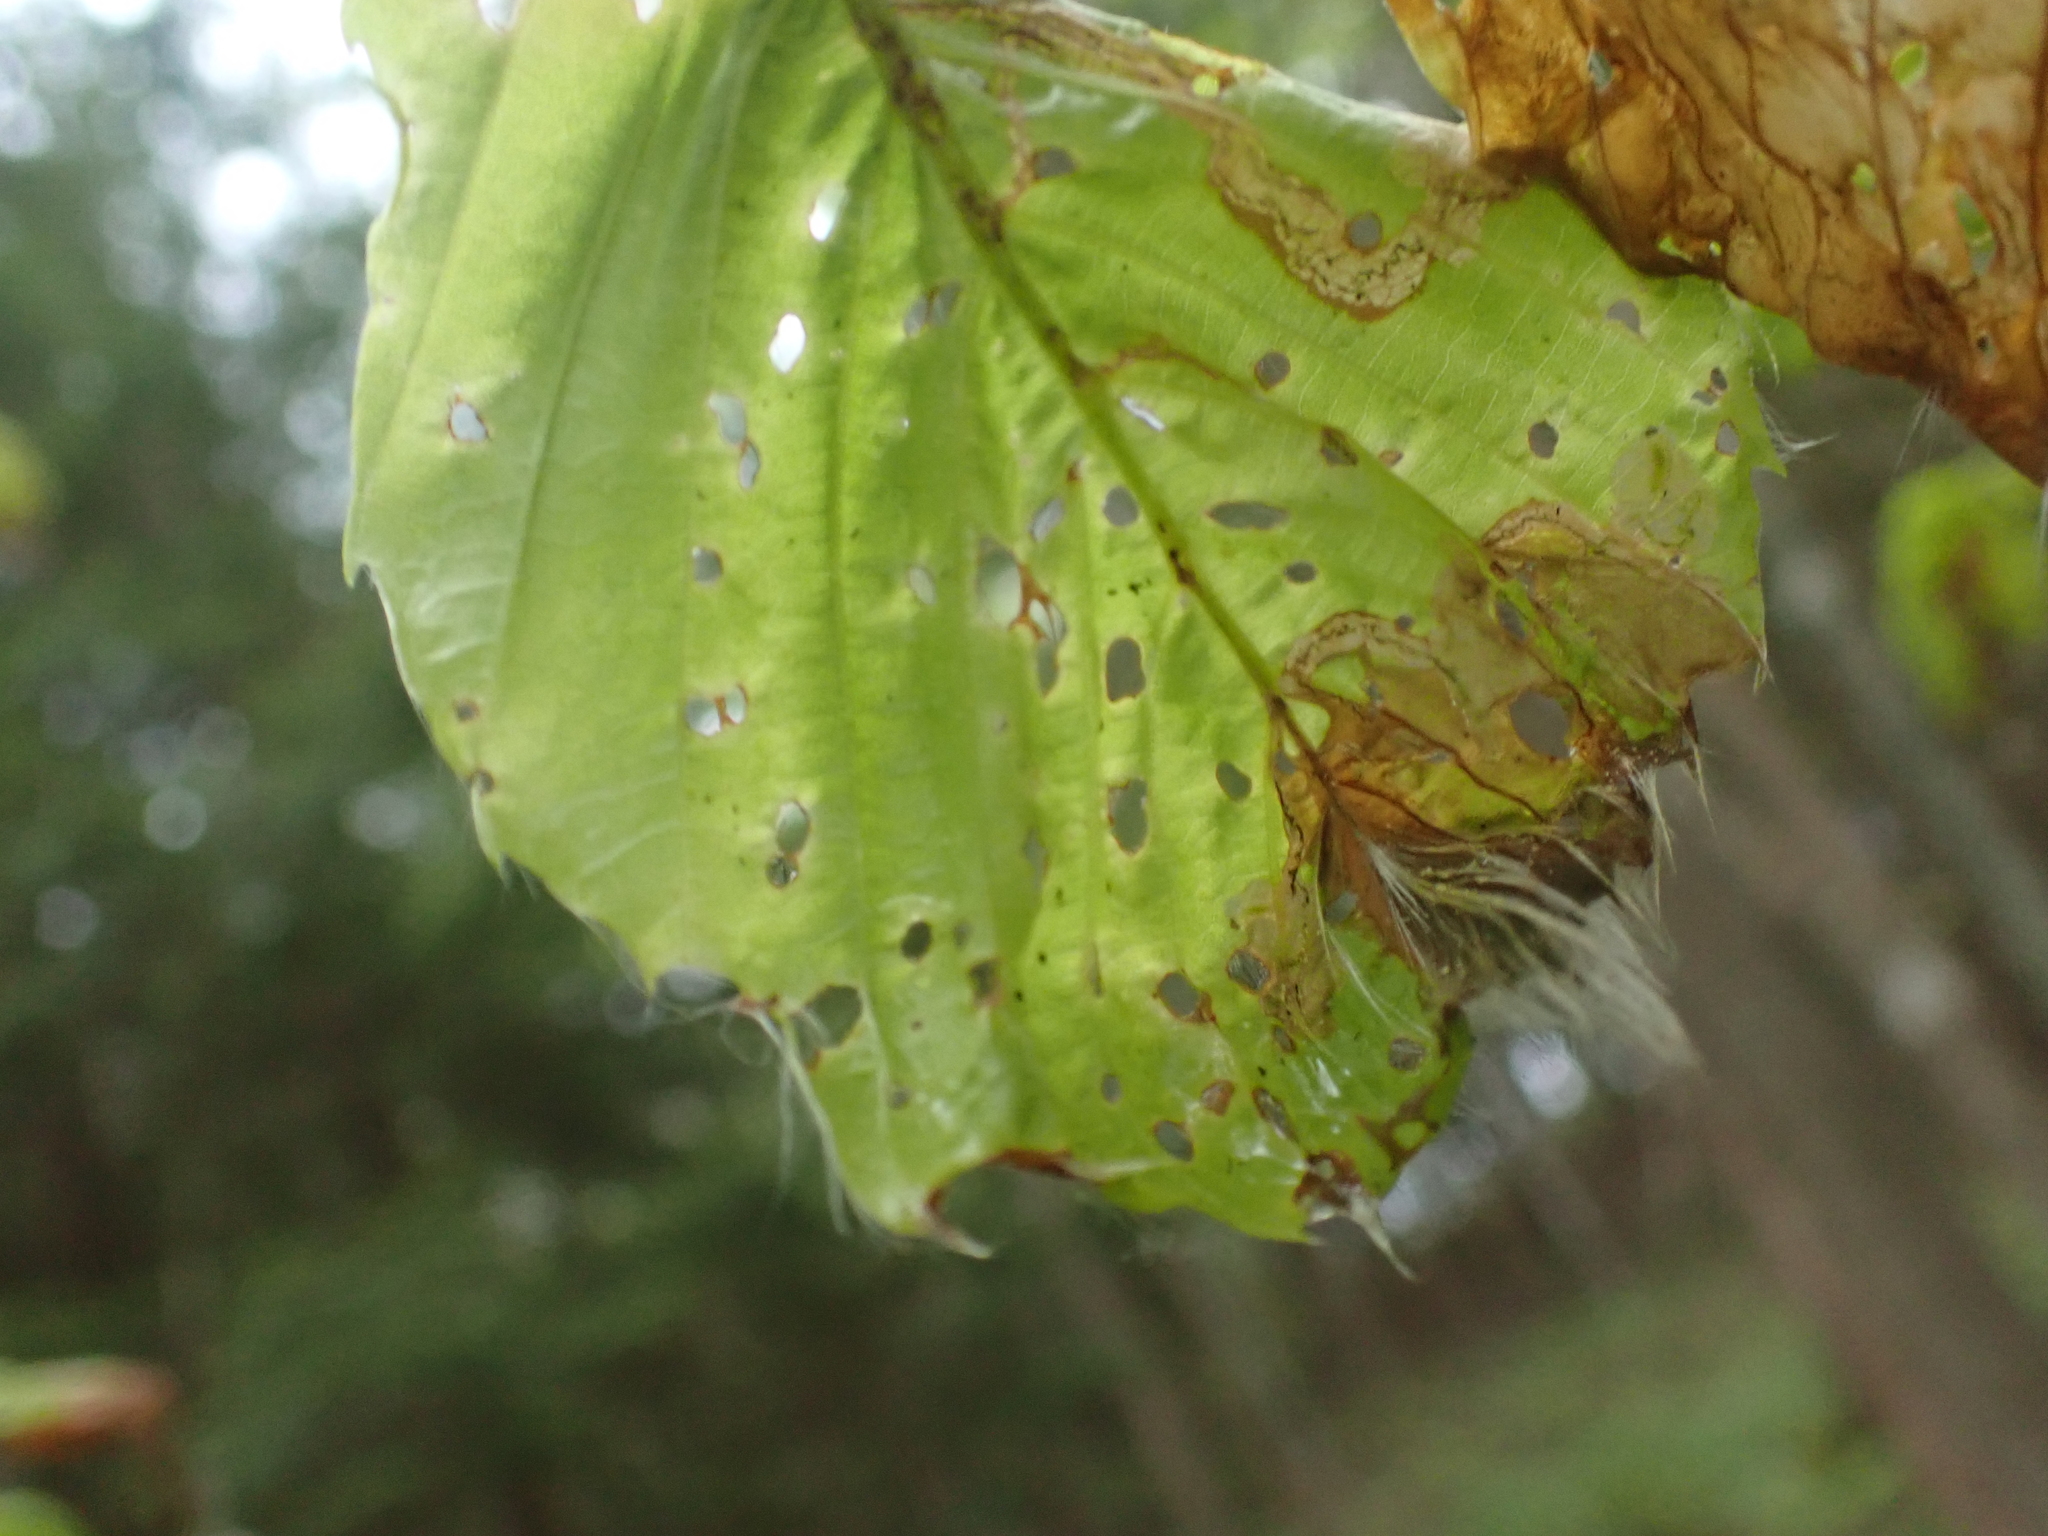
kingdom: Animalia
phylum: Arthropoda
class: Insecta
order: Coleoptera
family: Curculionidae
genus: Orchestes
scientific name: Orchestes fagi
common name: Beech leaf miner
